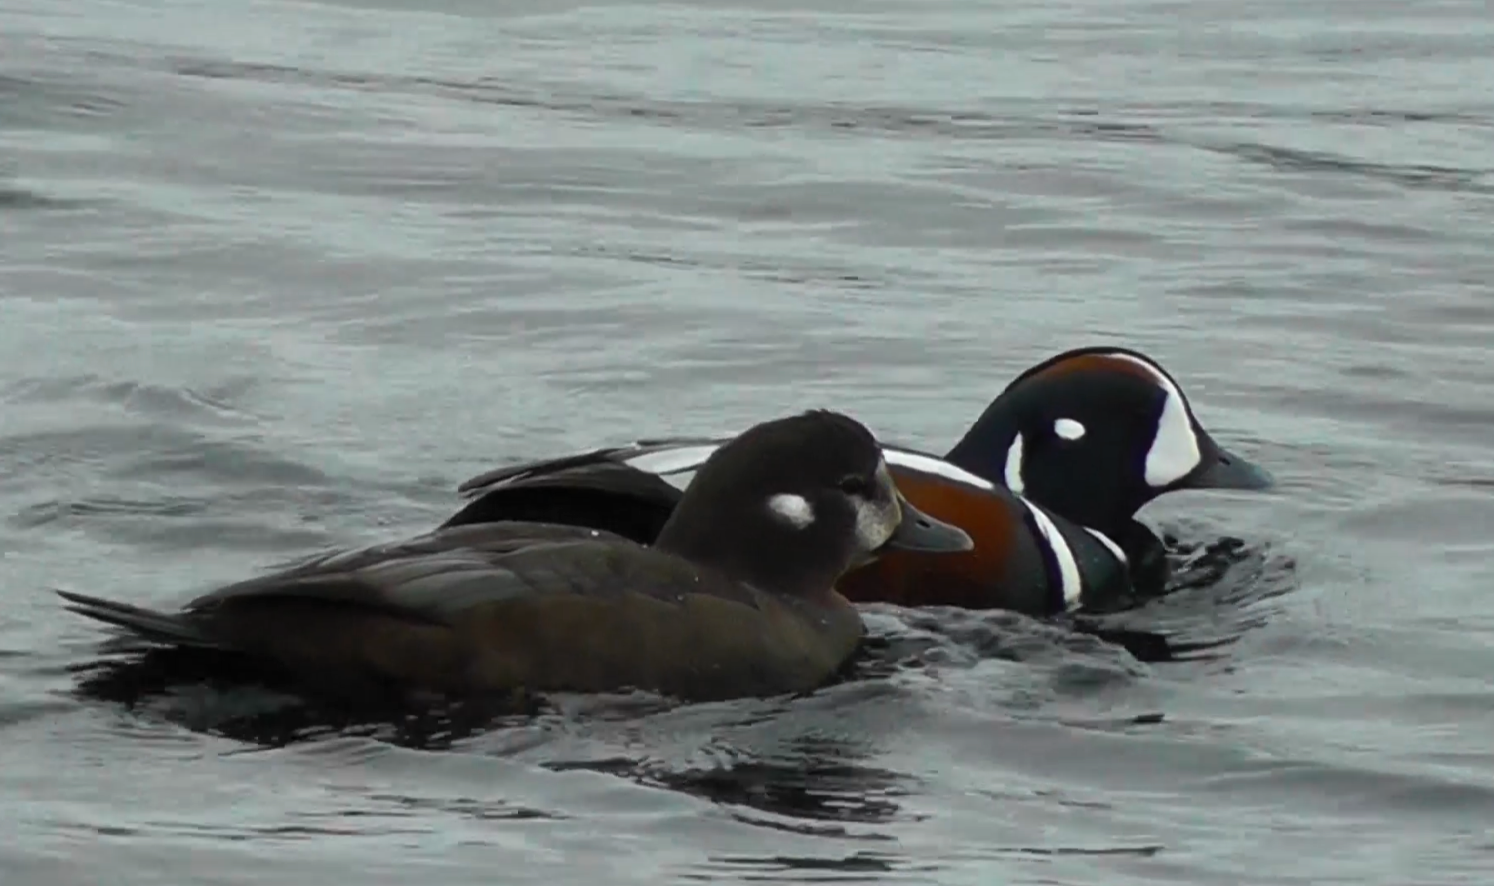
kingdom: Animalia
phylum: Chordata
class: Aves
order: Anseriformes
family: Anatidae
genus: Histrionicus
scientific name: Histrionicus histrionicus
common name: Harlequin duck
